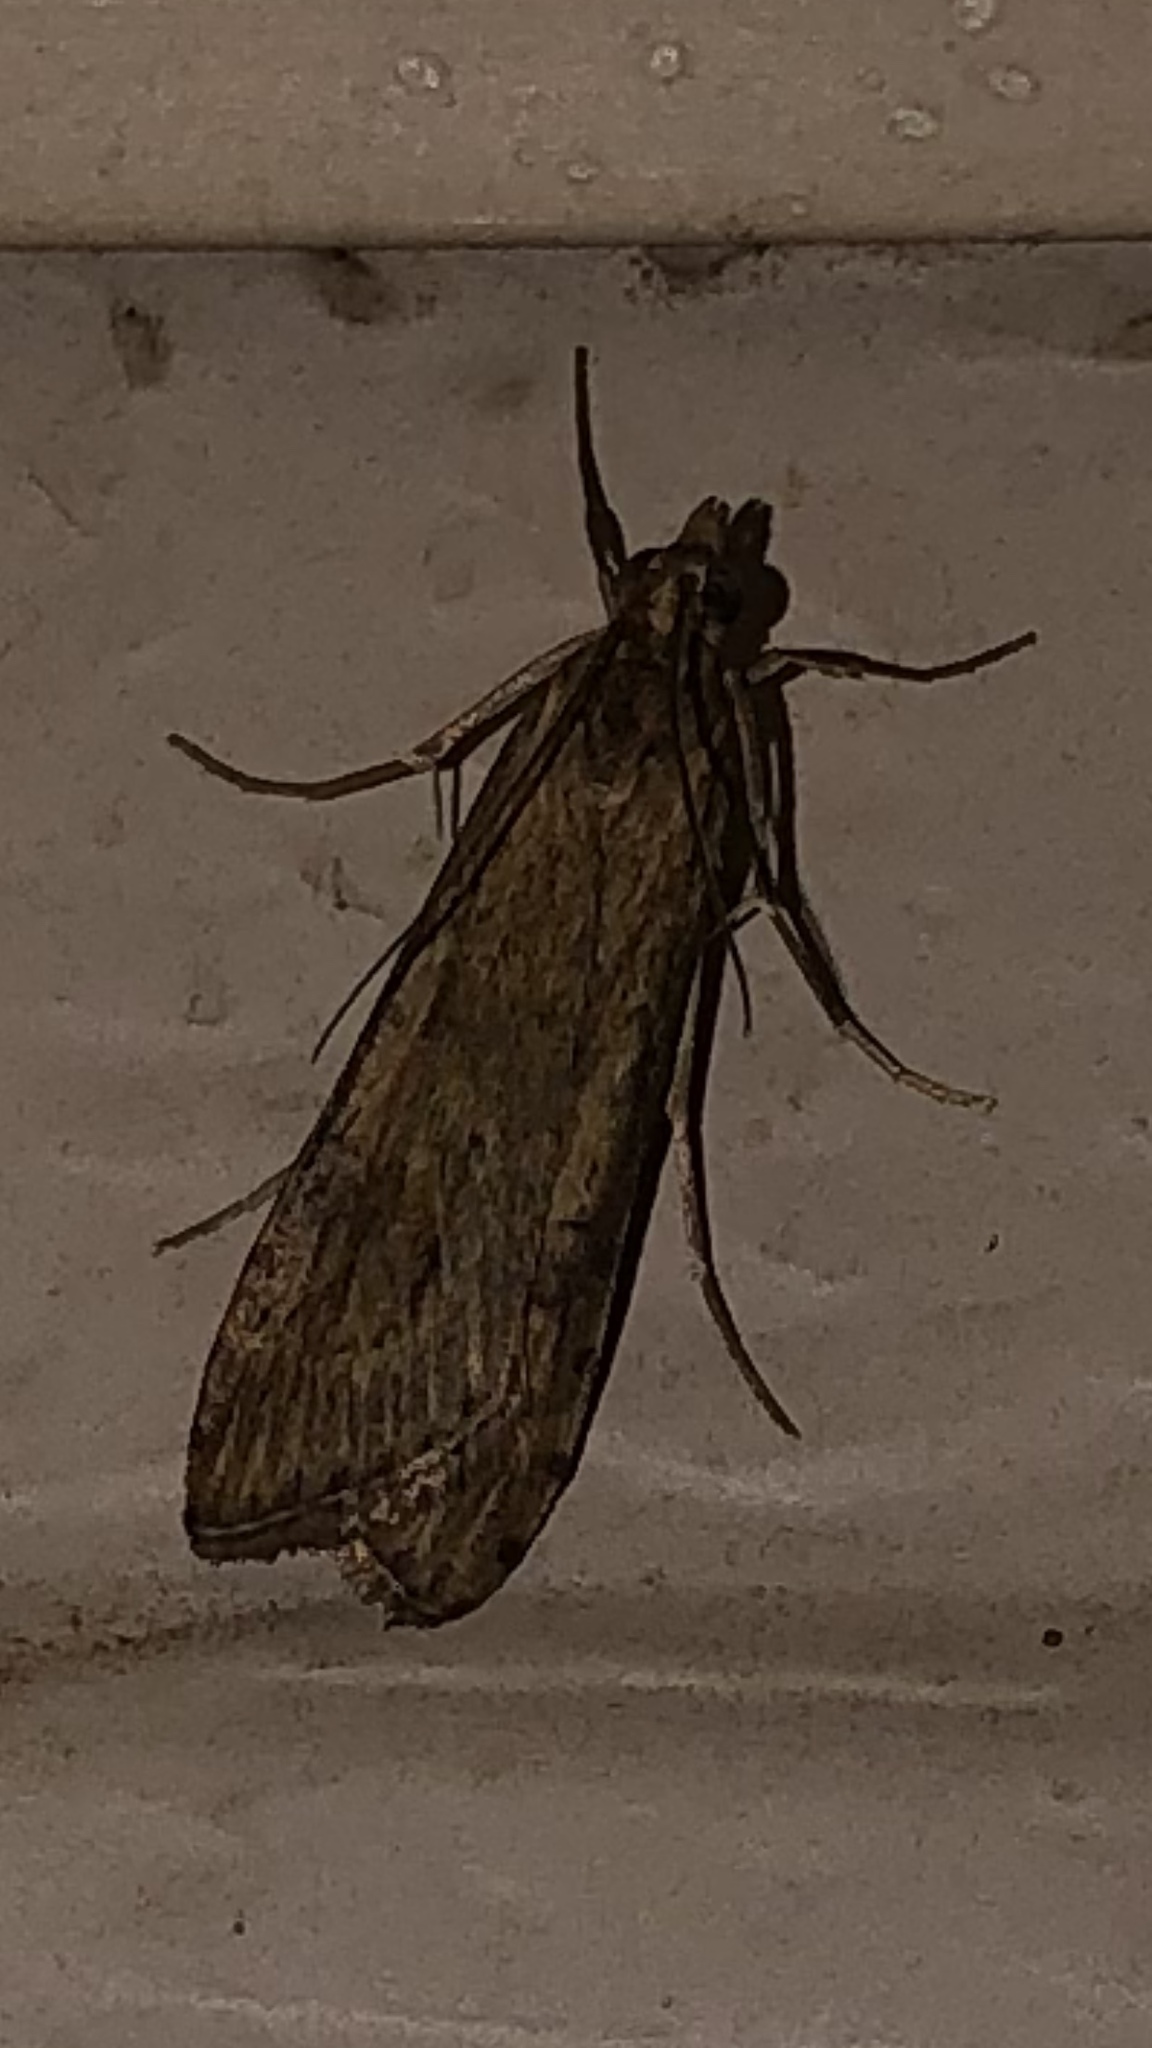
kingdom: Animalia
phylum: Arthropoda
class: Insecta
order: Lepidoptera
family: Crambidae
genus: Nomophila
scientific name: Nomophila nearctica
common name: American rush veneer
